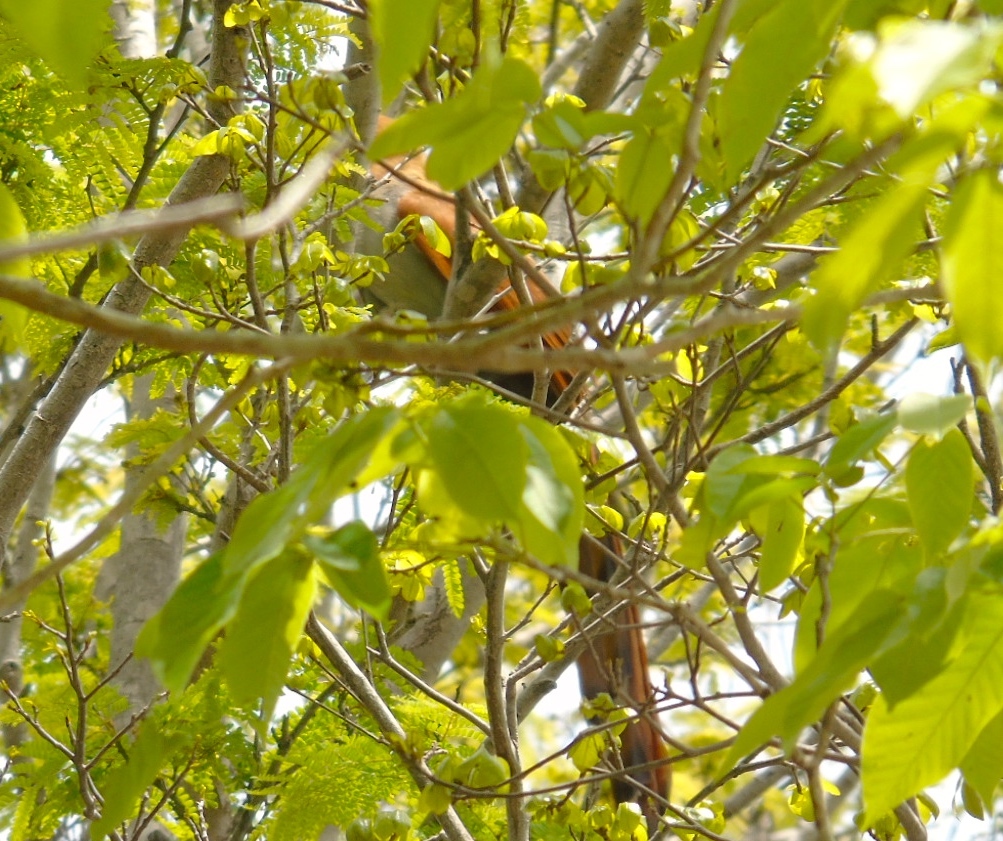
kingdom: Animalia
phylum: Chordata
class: Aves
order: Cuculiformes
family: Cuculidae
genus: Piaya
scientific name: Piaya cayana
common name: Squirrel cuckoo
